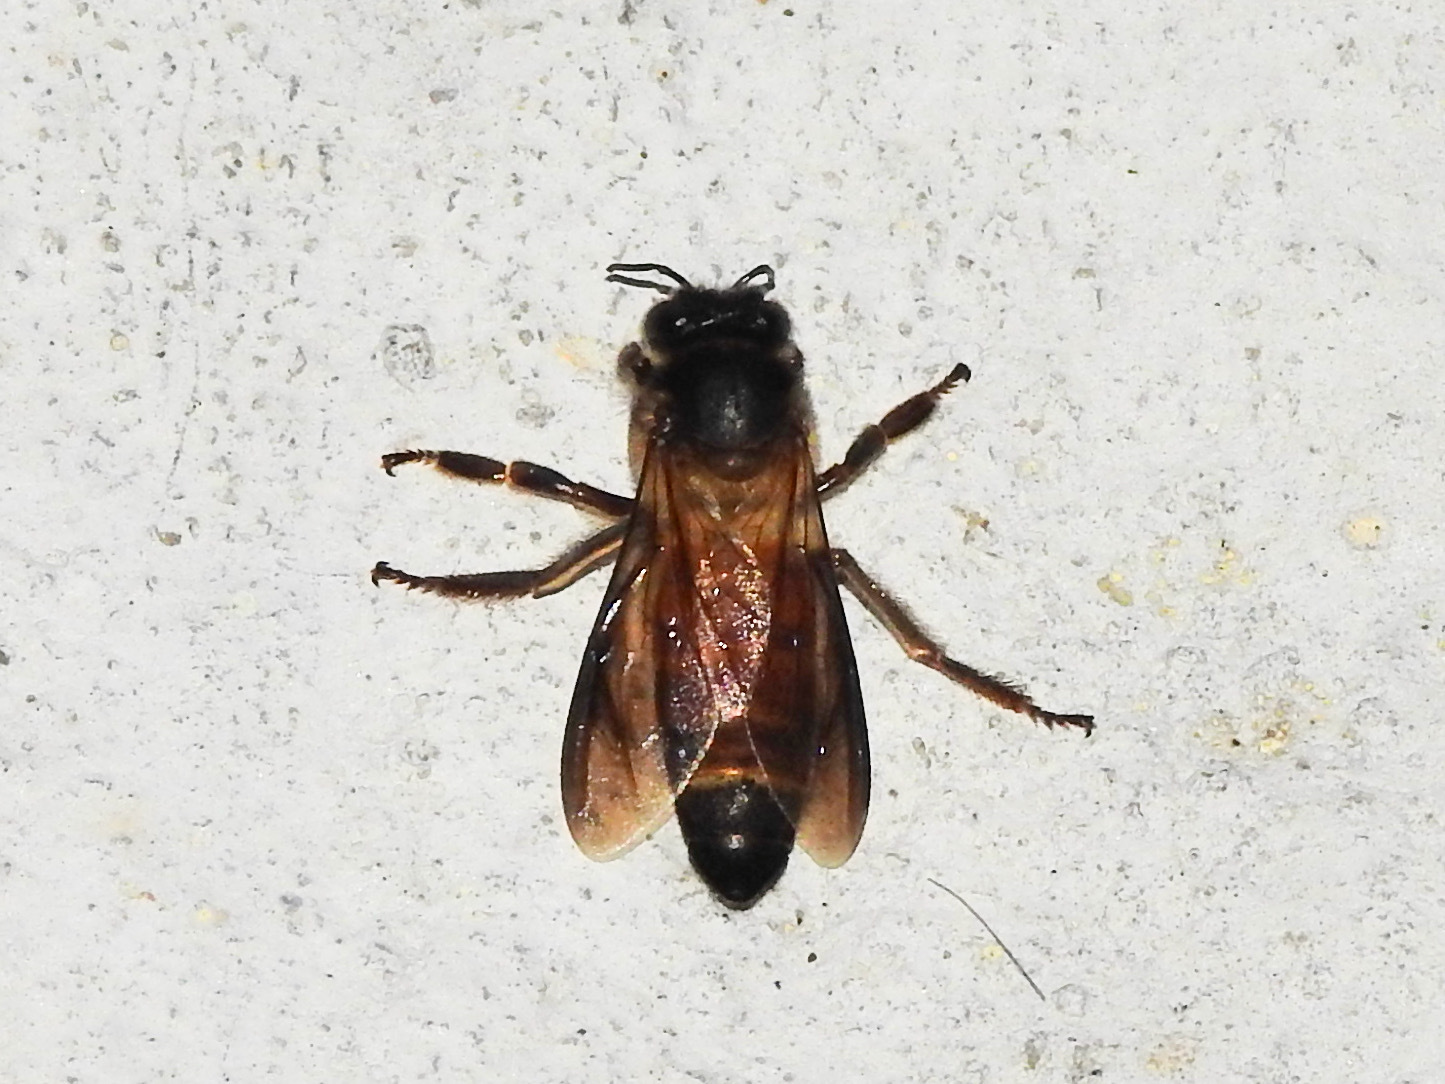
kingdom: Animalia
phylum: Arthropoda
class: Insecta
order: Hymenoptera
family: Apidae
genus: Apis
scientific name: Apis dorsata
